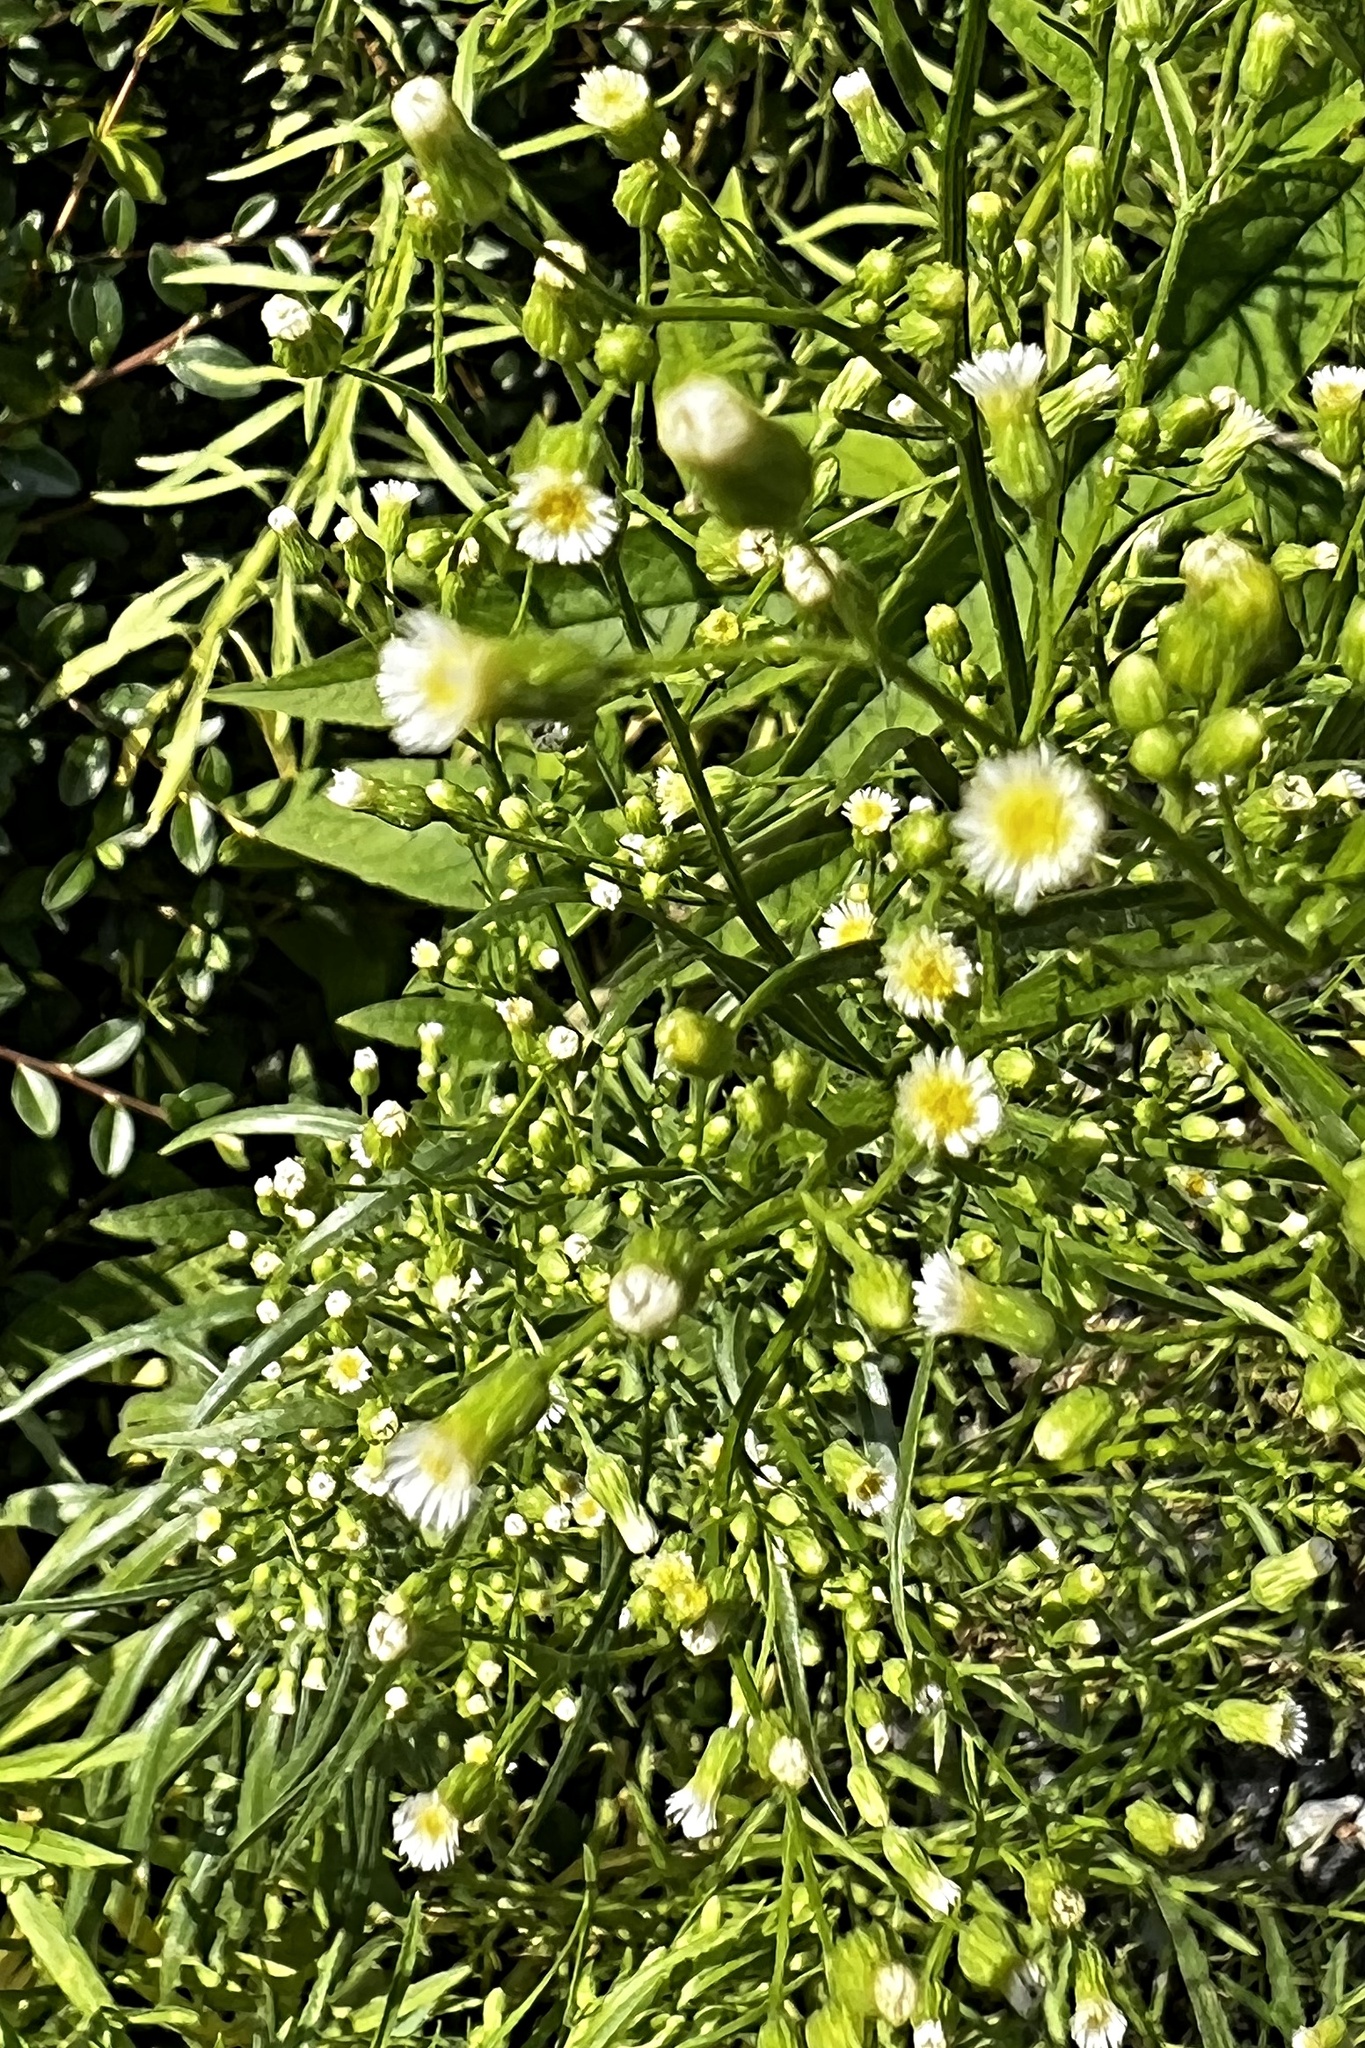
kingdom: Plantae
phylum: Tracheophyta
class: Magnoliopsida
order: Asterales
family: Asteraceae
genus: Erigeron
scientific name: Erigeron canadensis
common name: Canadian fleabane
